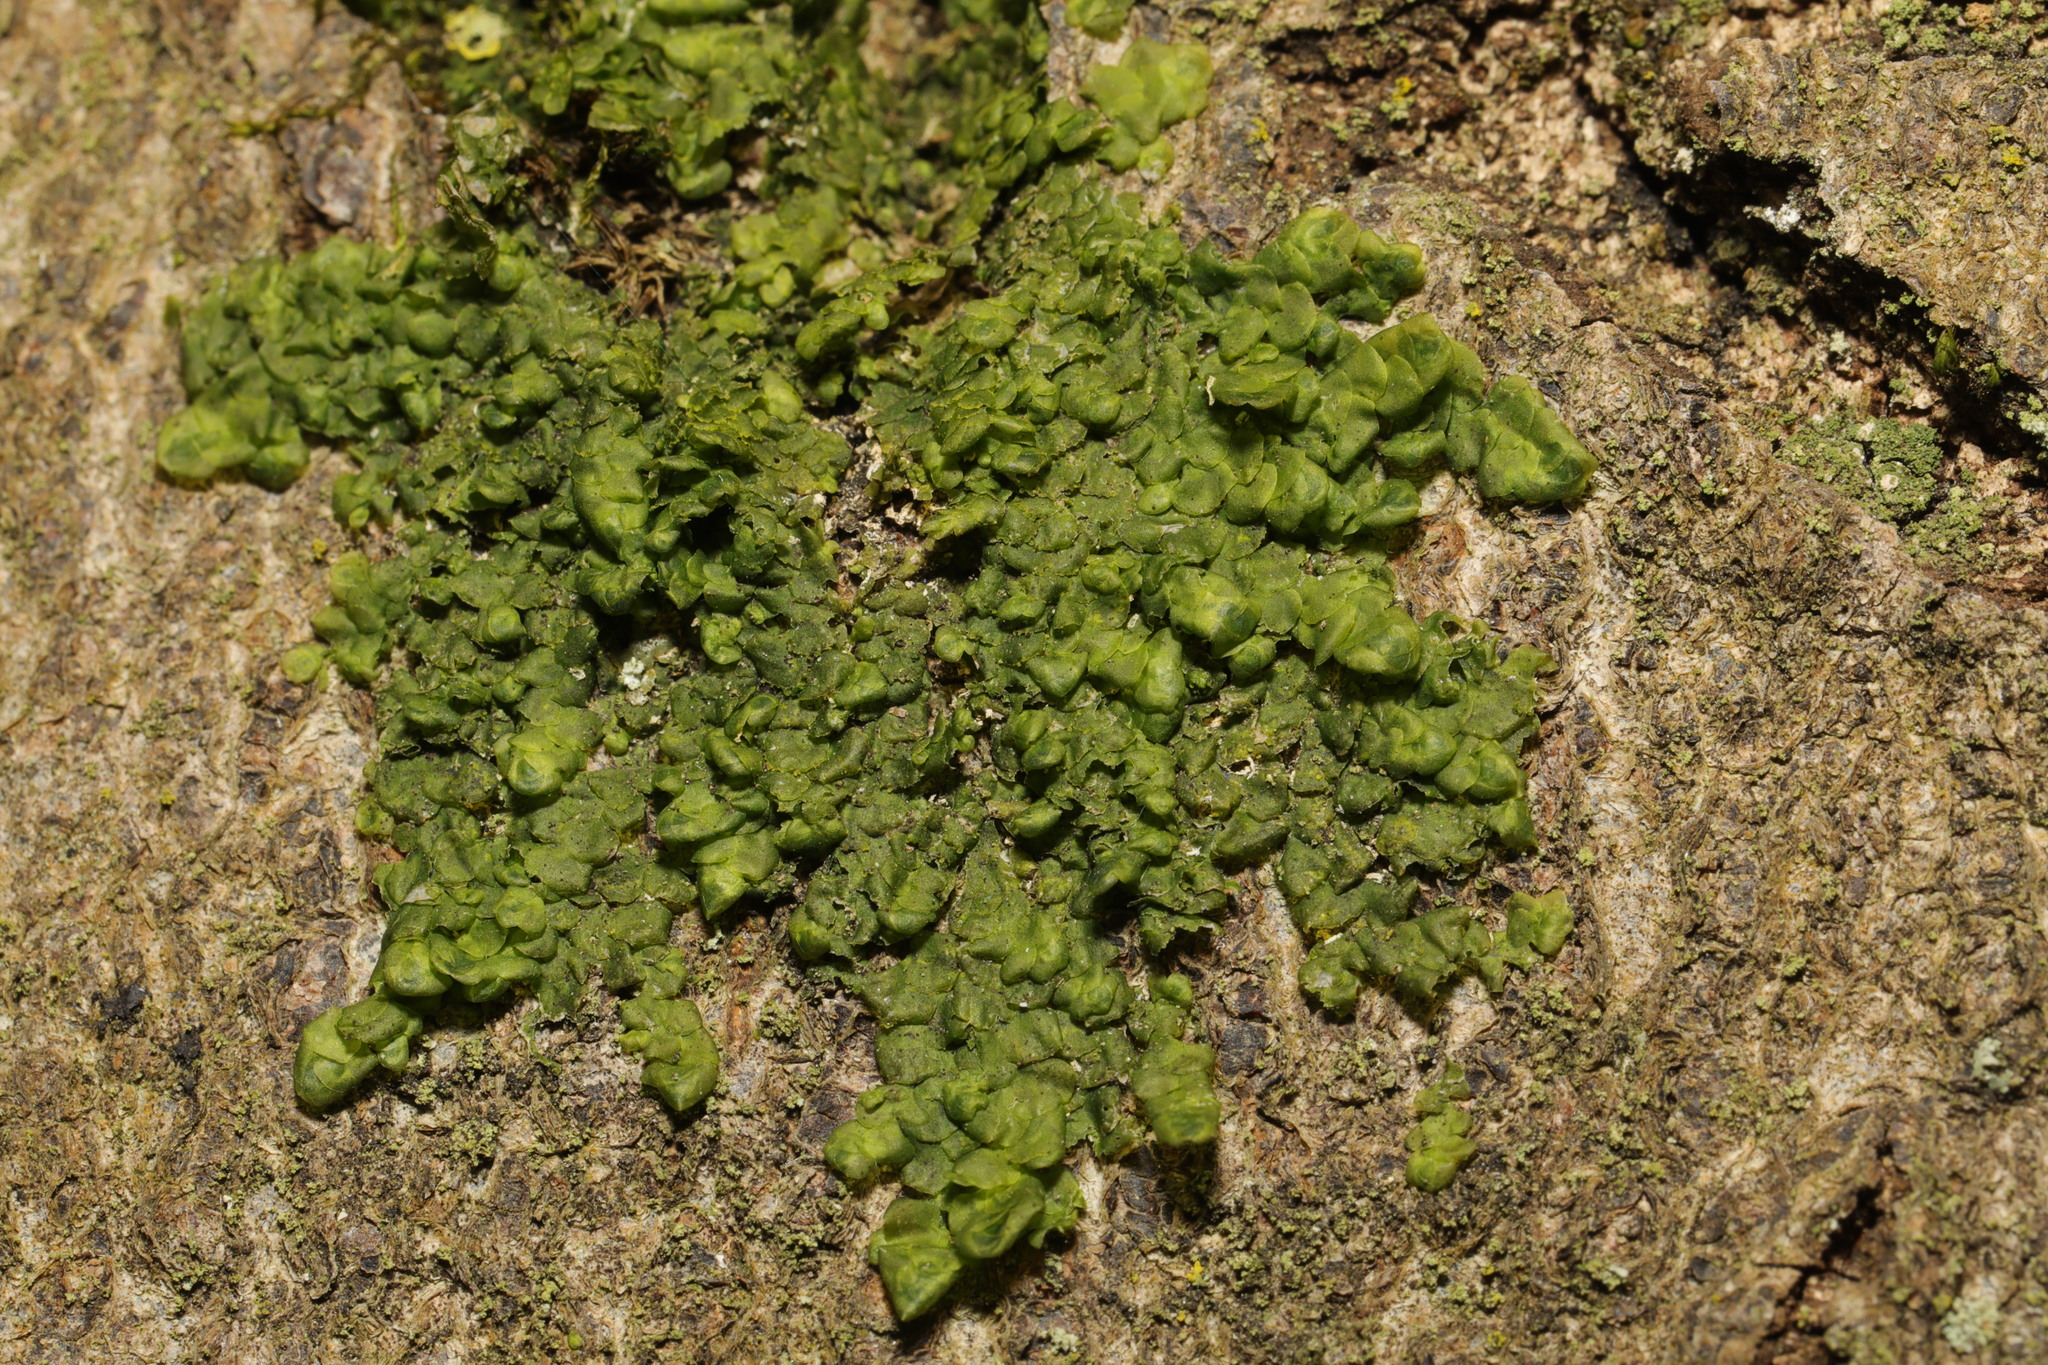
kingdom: Plantae
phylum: Marchantiophyta
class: Jungermanniopsida
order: Porellales
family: Radulaceae
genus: Radula
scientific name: Radula complanata
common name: Flat-leaved scalewort
